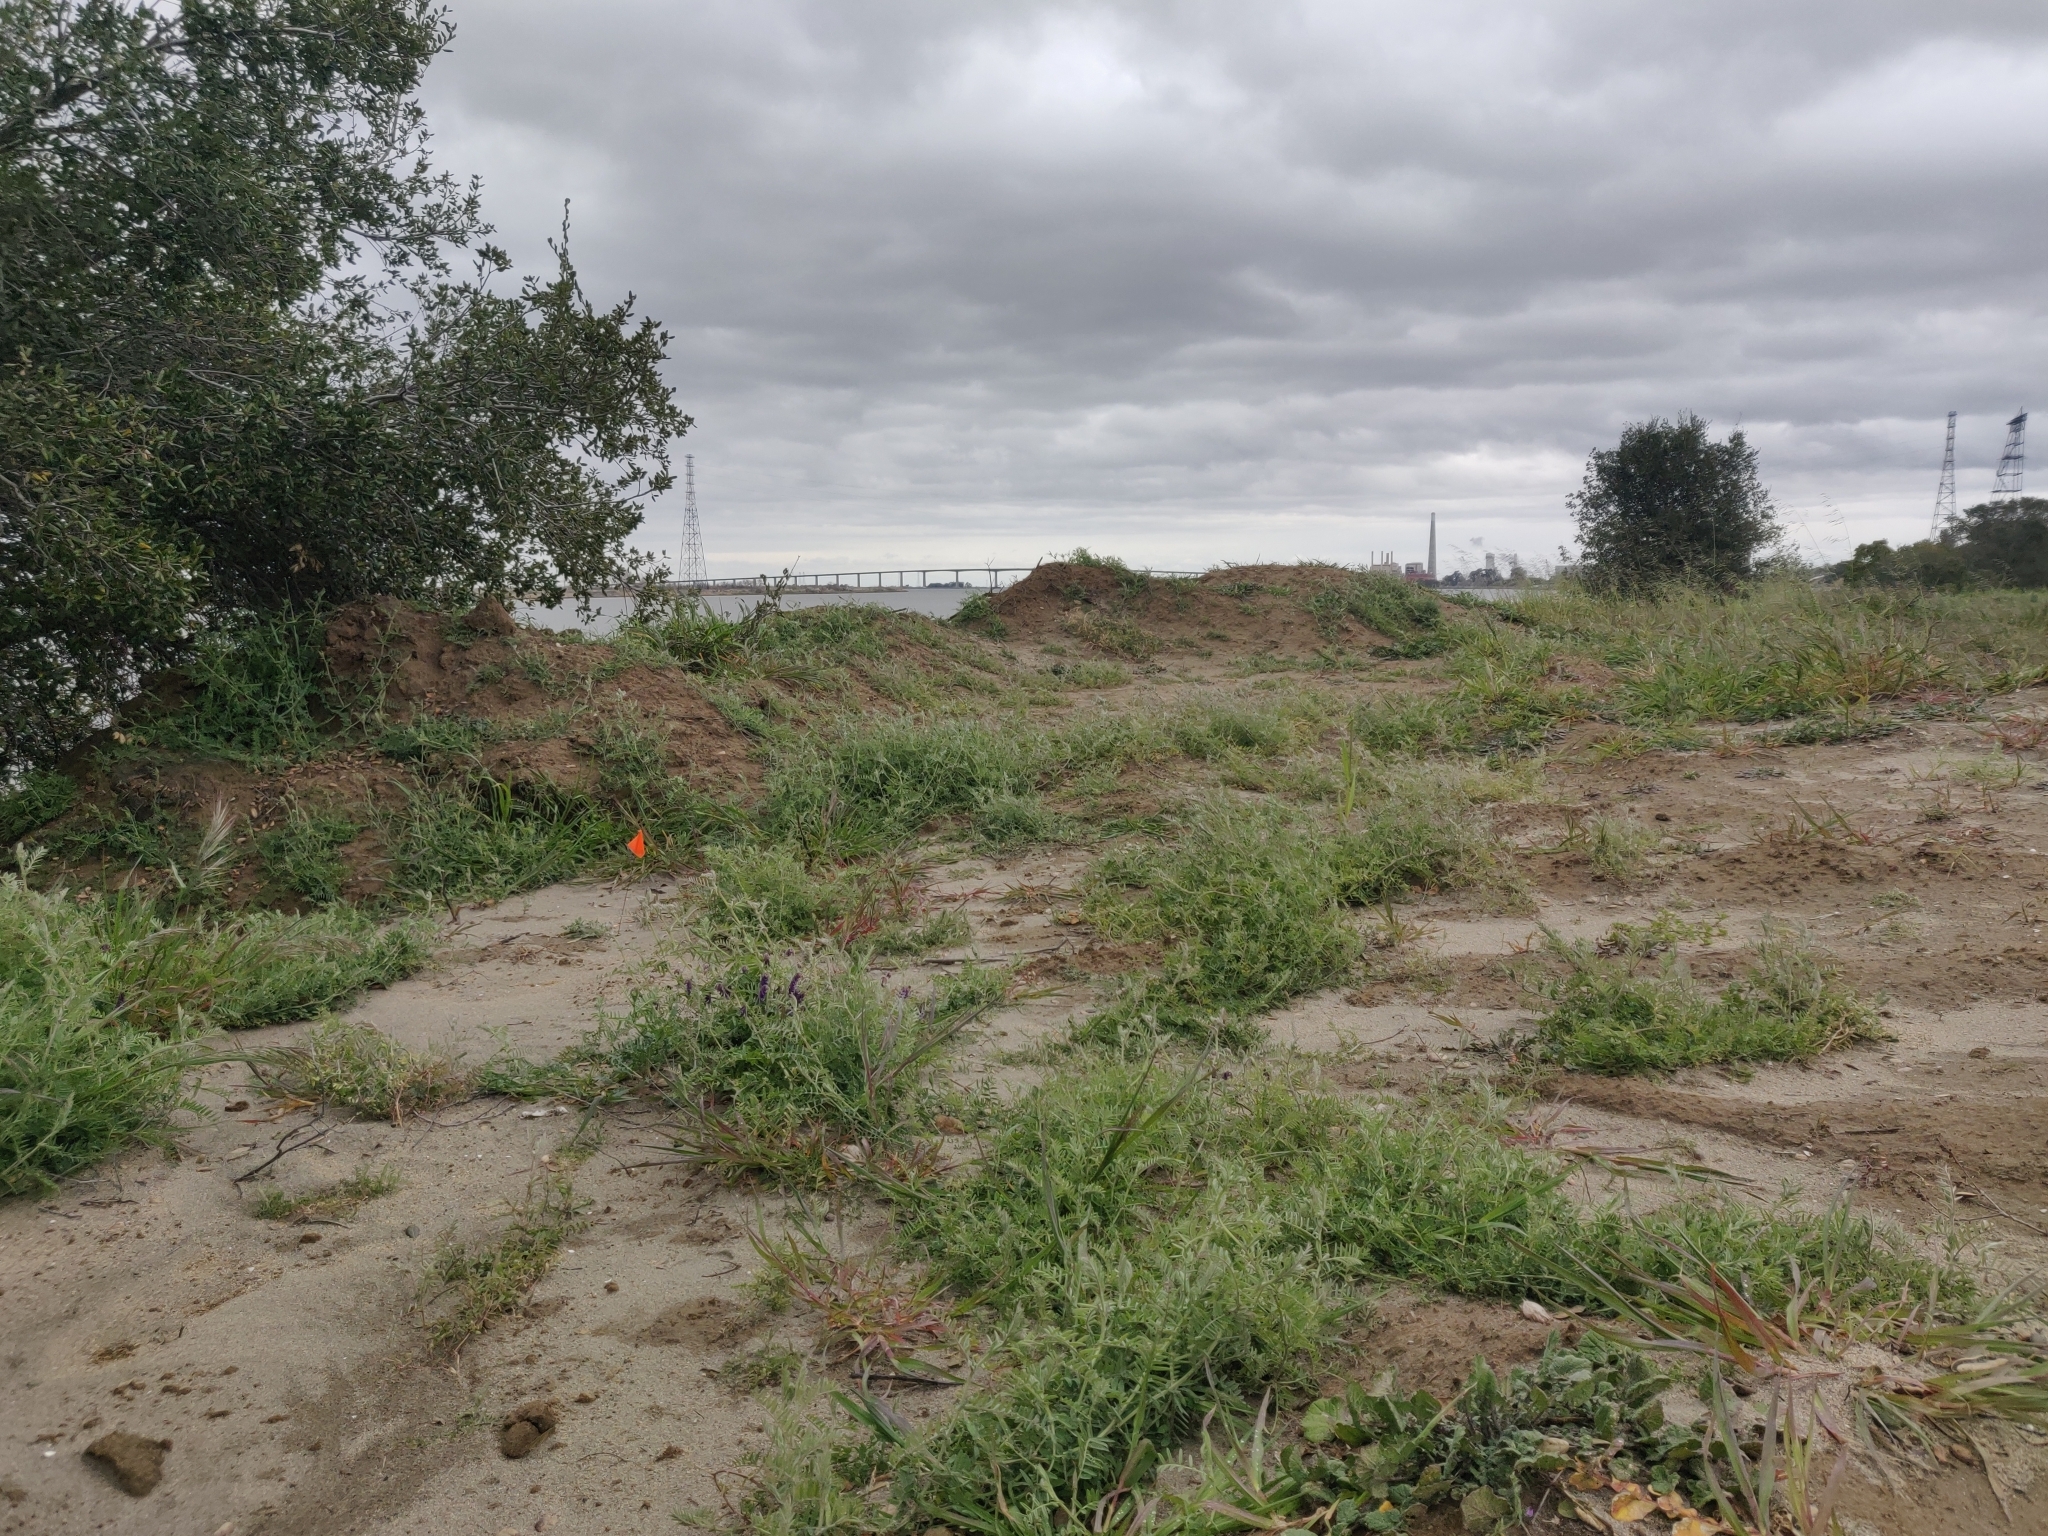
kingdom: Plantae
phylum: Tracheophyta
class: Magnoliopsida
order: Fabales
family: Fabaceae
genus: Vicia
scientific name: Vicia villosa
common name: Fodder vetch
